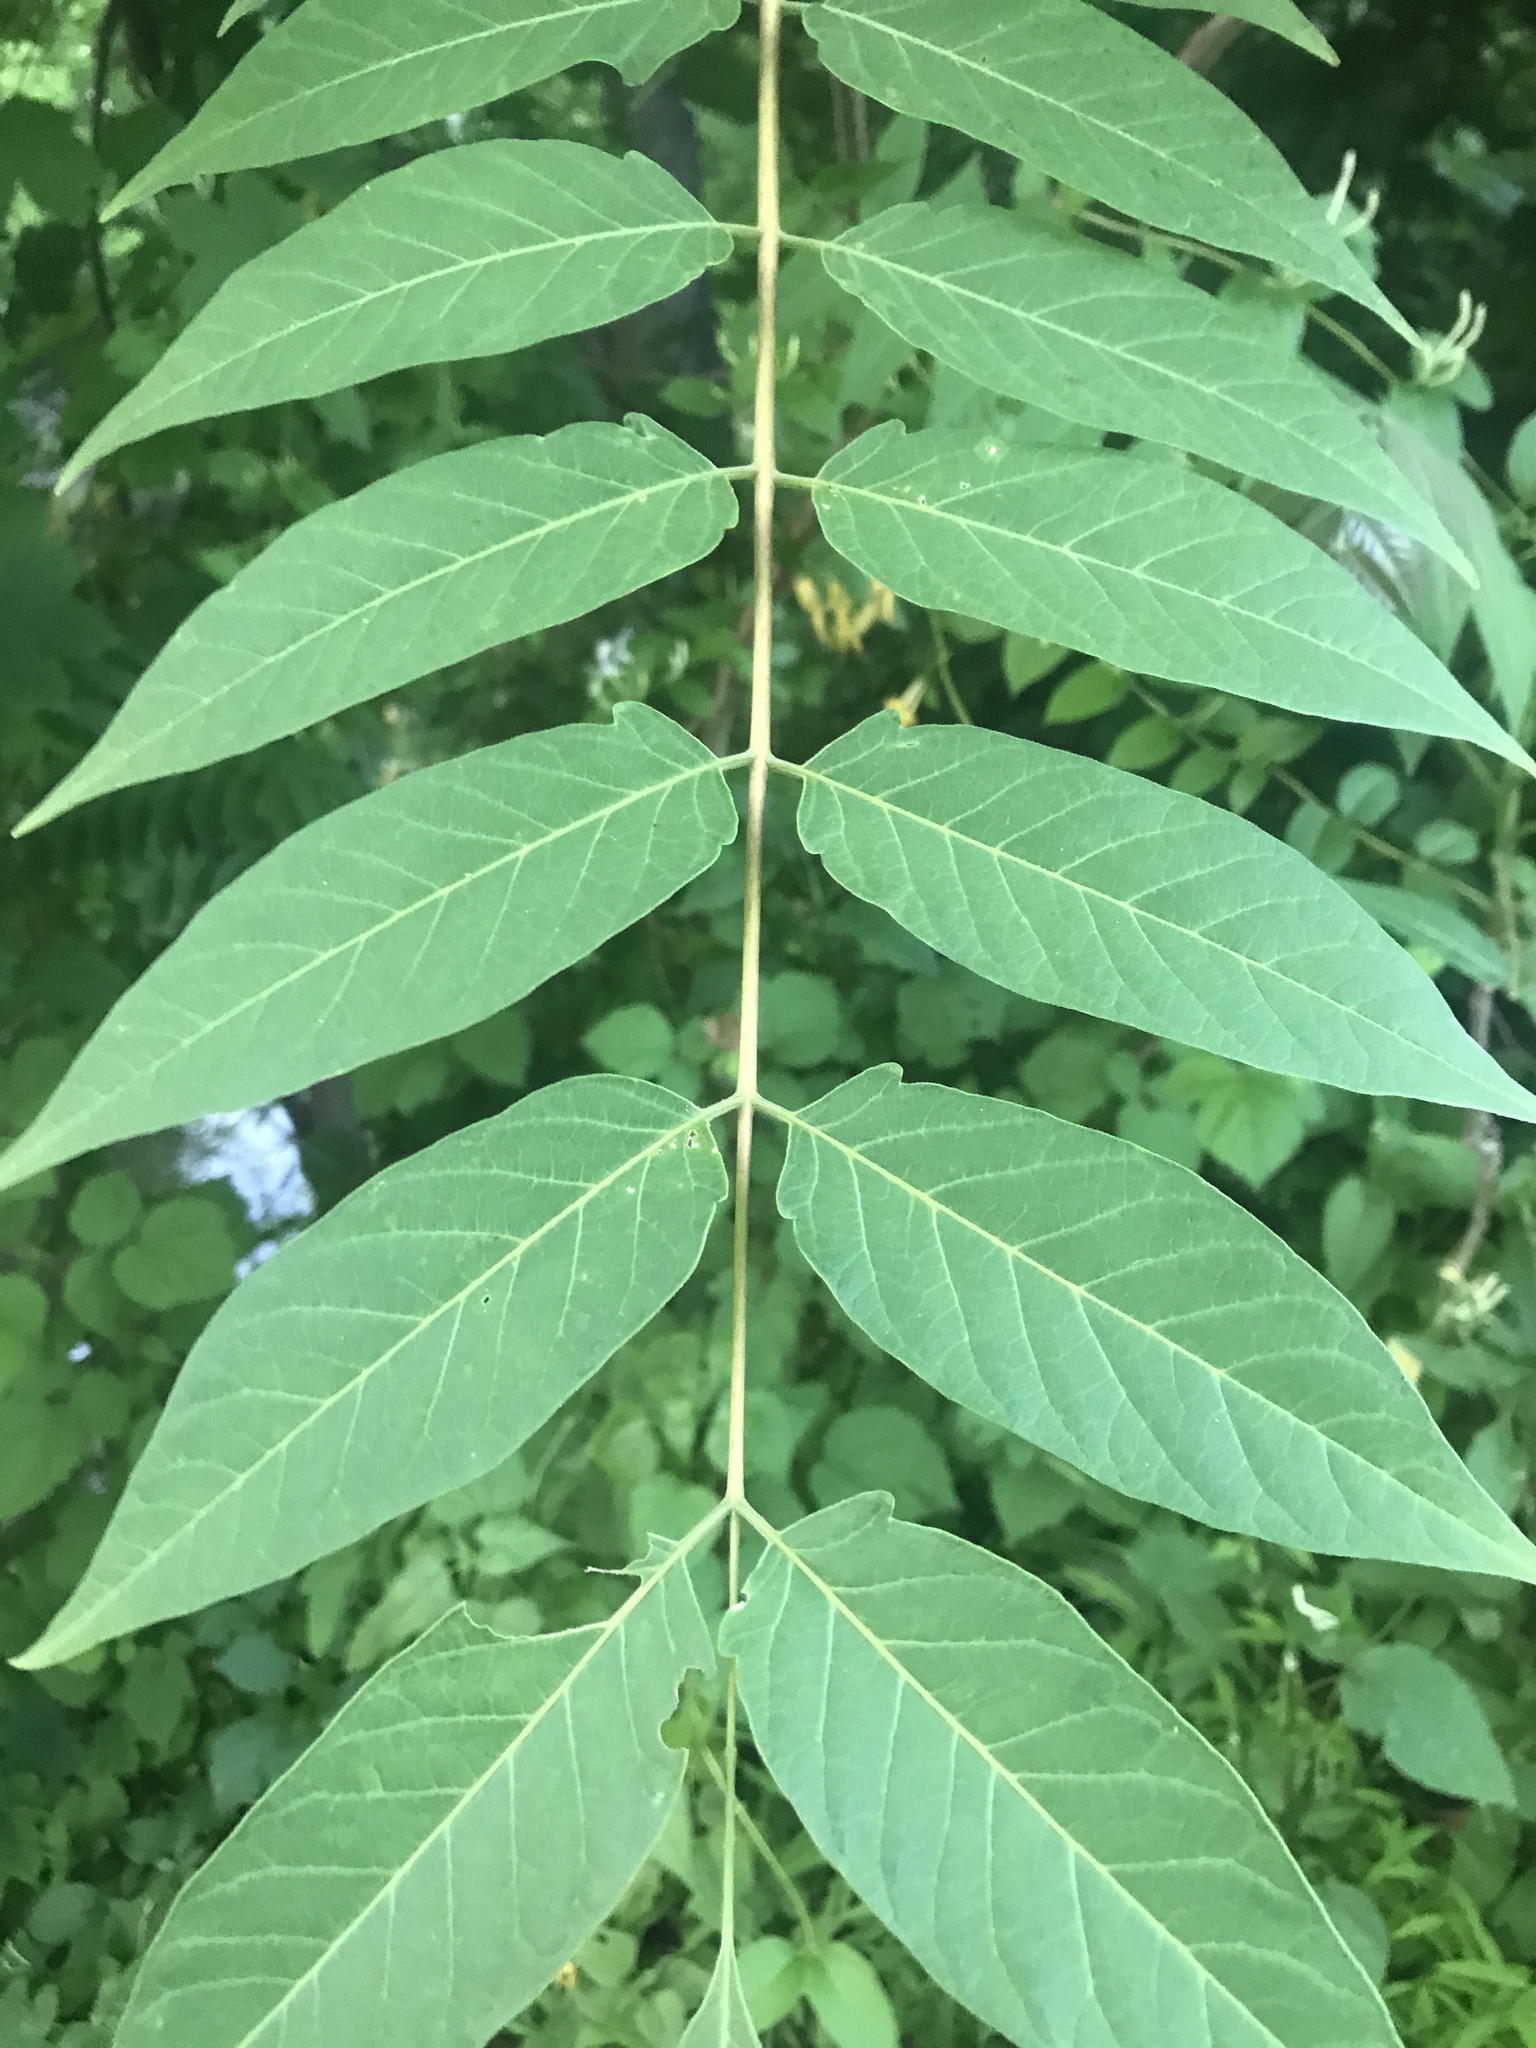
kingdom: Plantae
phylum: Tracheophyta
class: Magnoliopsida
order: Sapindales
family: Simaroubaceae
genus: Ailanthus
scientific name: Ailanthus altissima
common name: Tree-of-heaven
